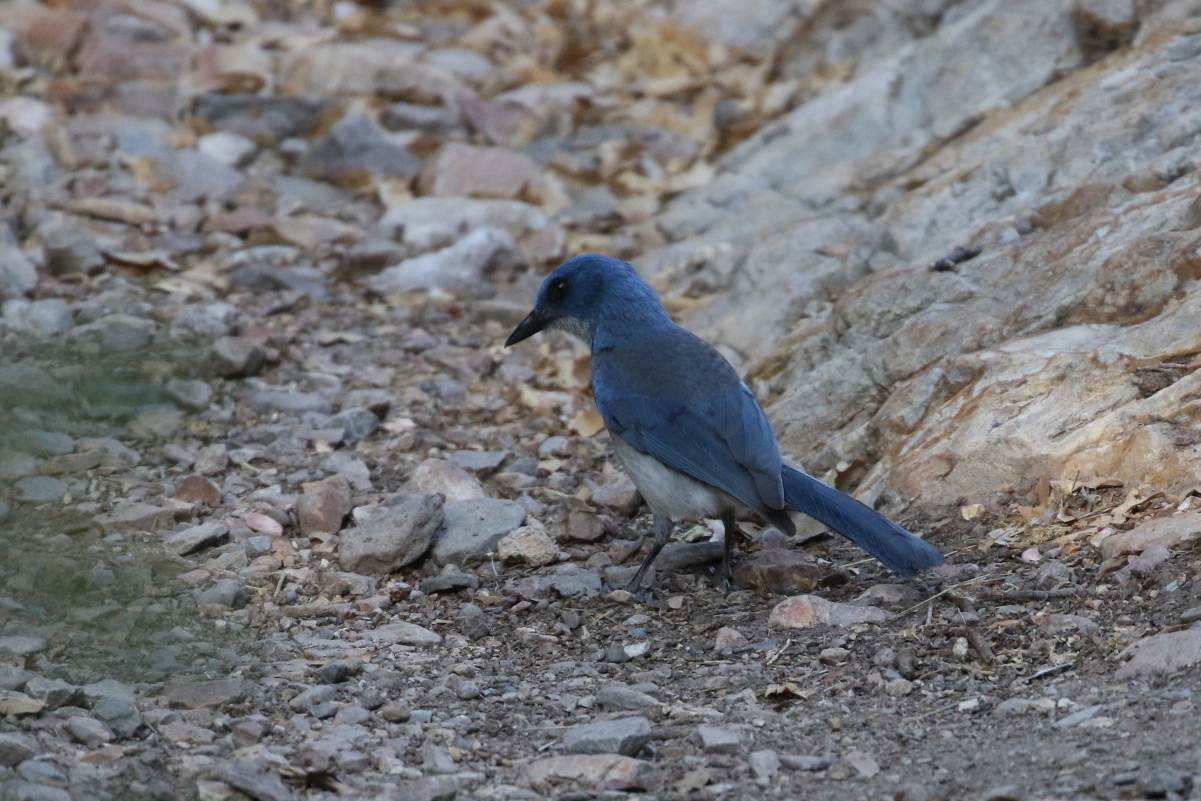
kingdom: Animalia
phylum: Chordata
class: Aves
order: Passeriformes
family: Corvidae
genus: Aphelocoma
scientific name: Aphelocoma wollweberi
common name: Mexican jay
